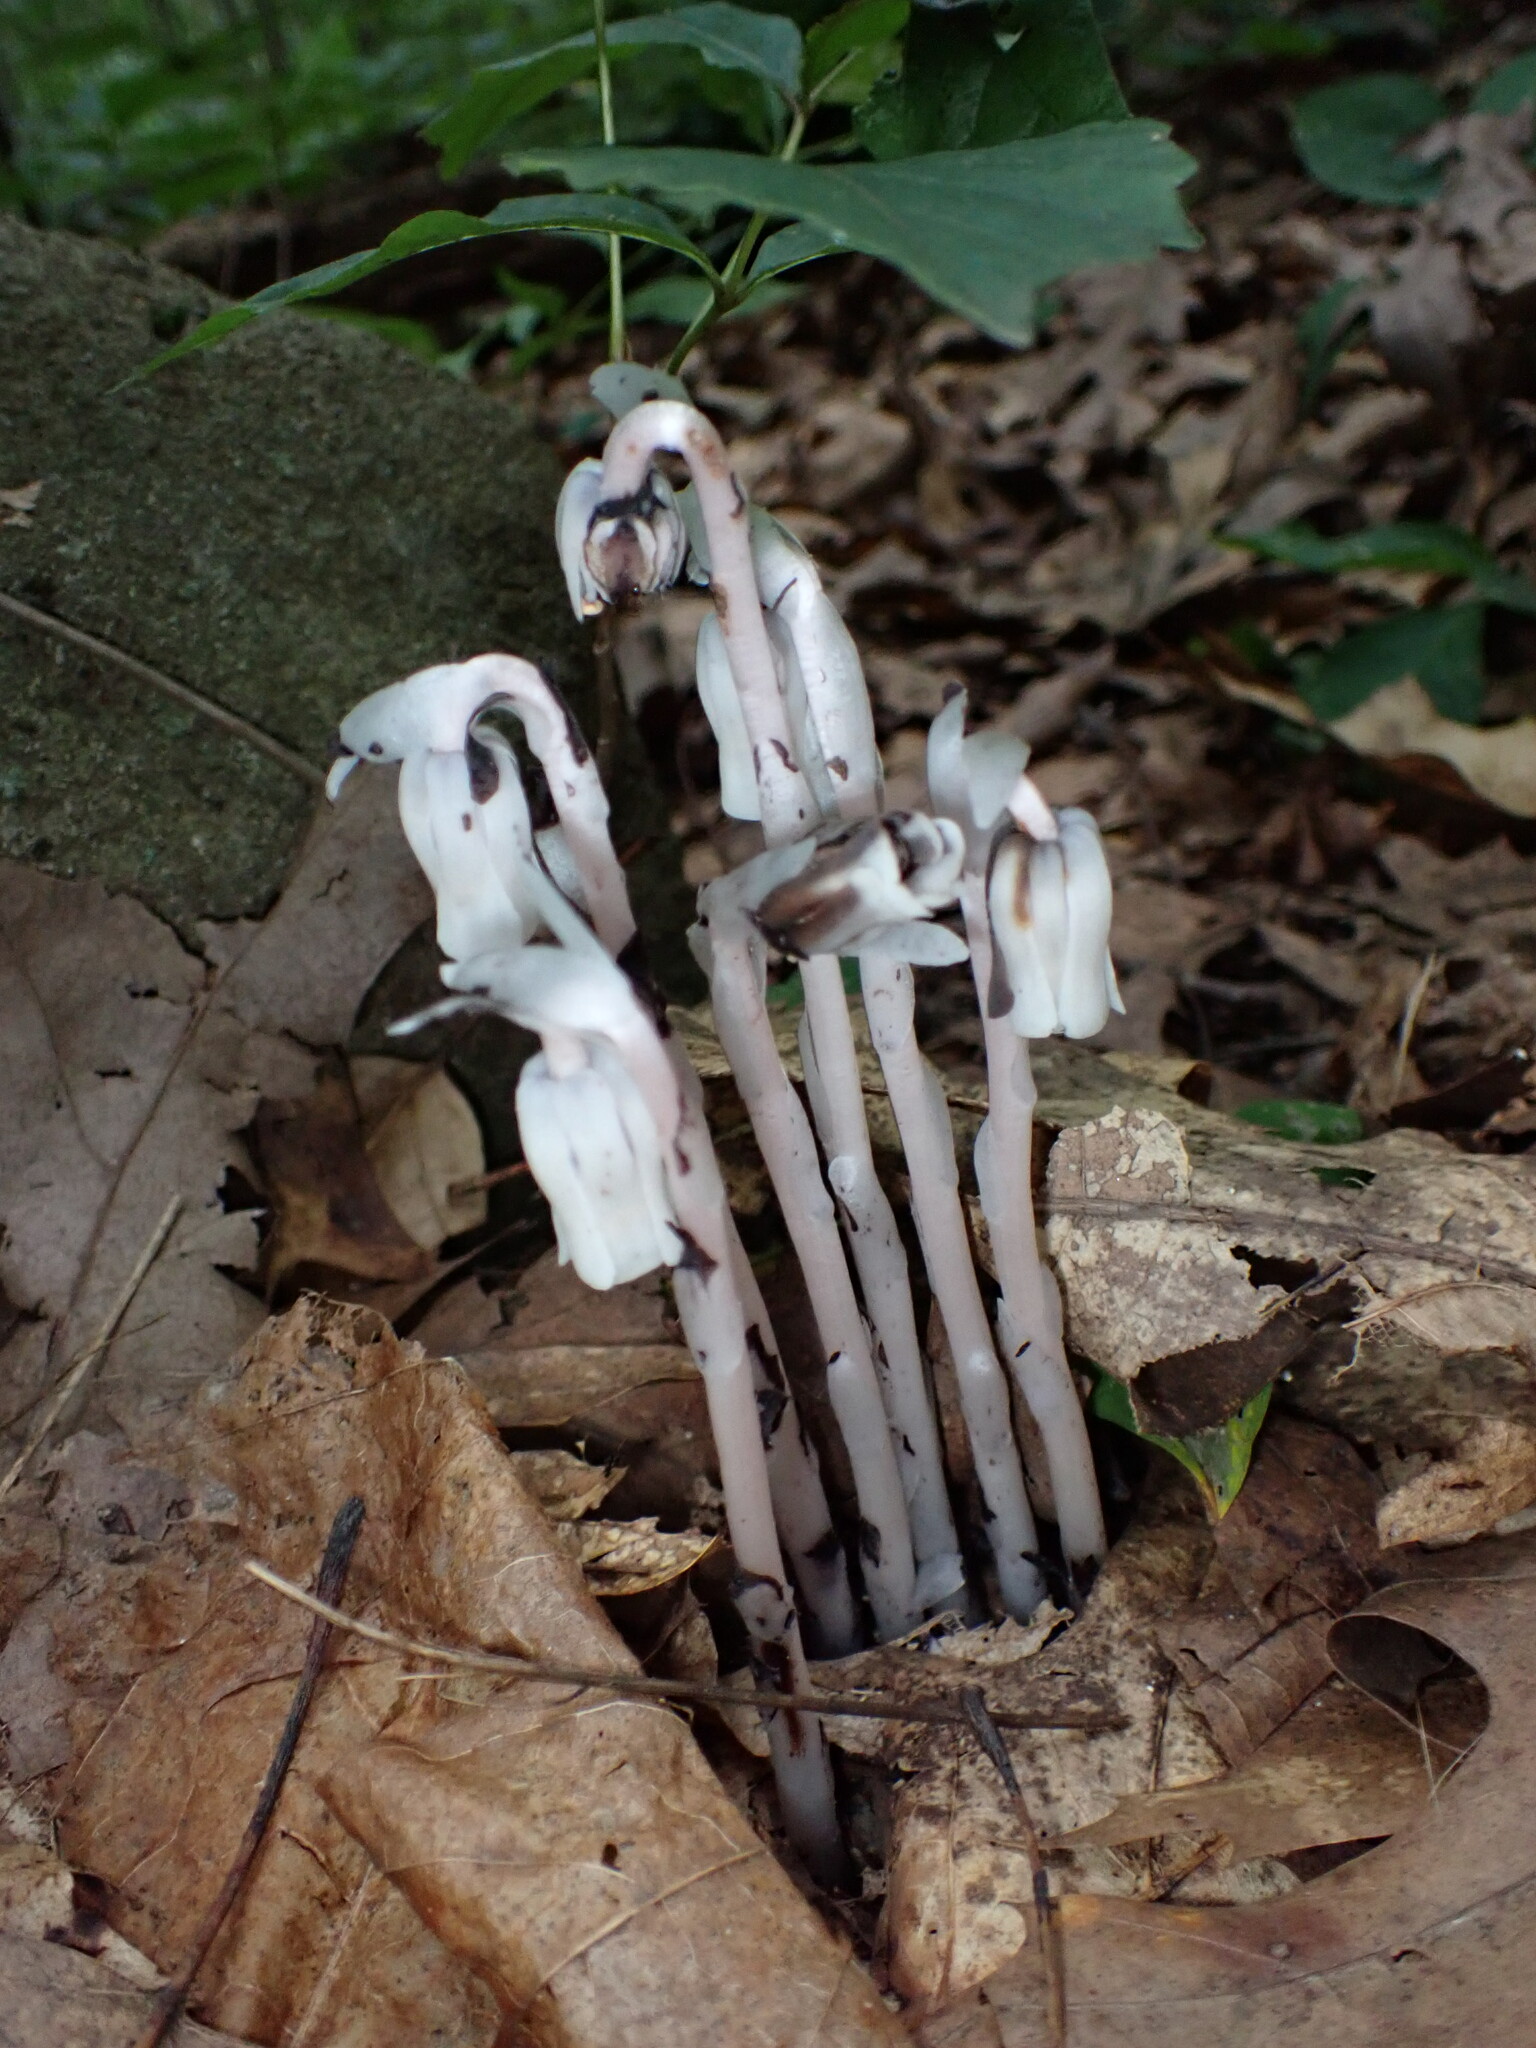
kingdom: Plantae
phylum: Tracheophyta
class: Magnoliopsida
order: Ericales
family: Ericaceae
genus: Monotropa
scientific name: Monotropa uniflora
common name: Convulsion root
